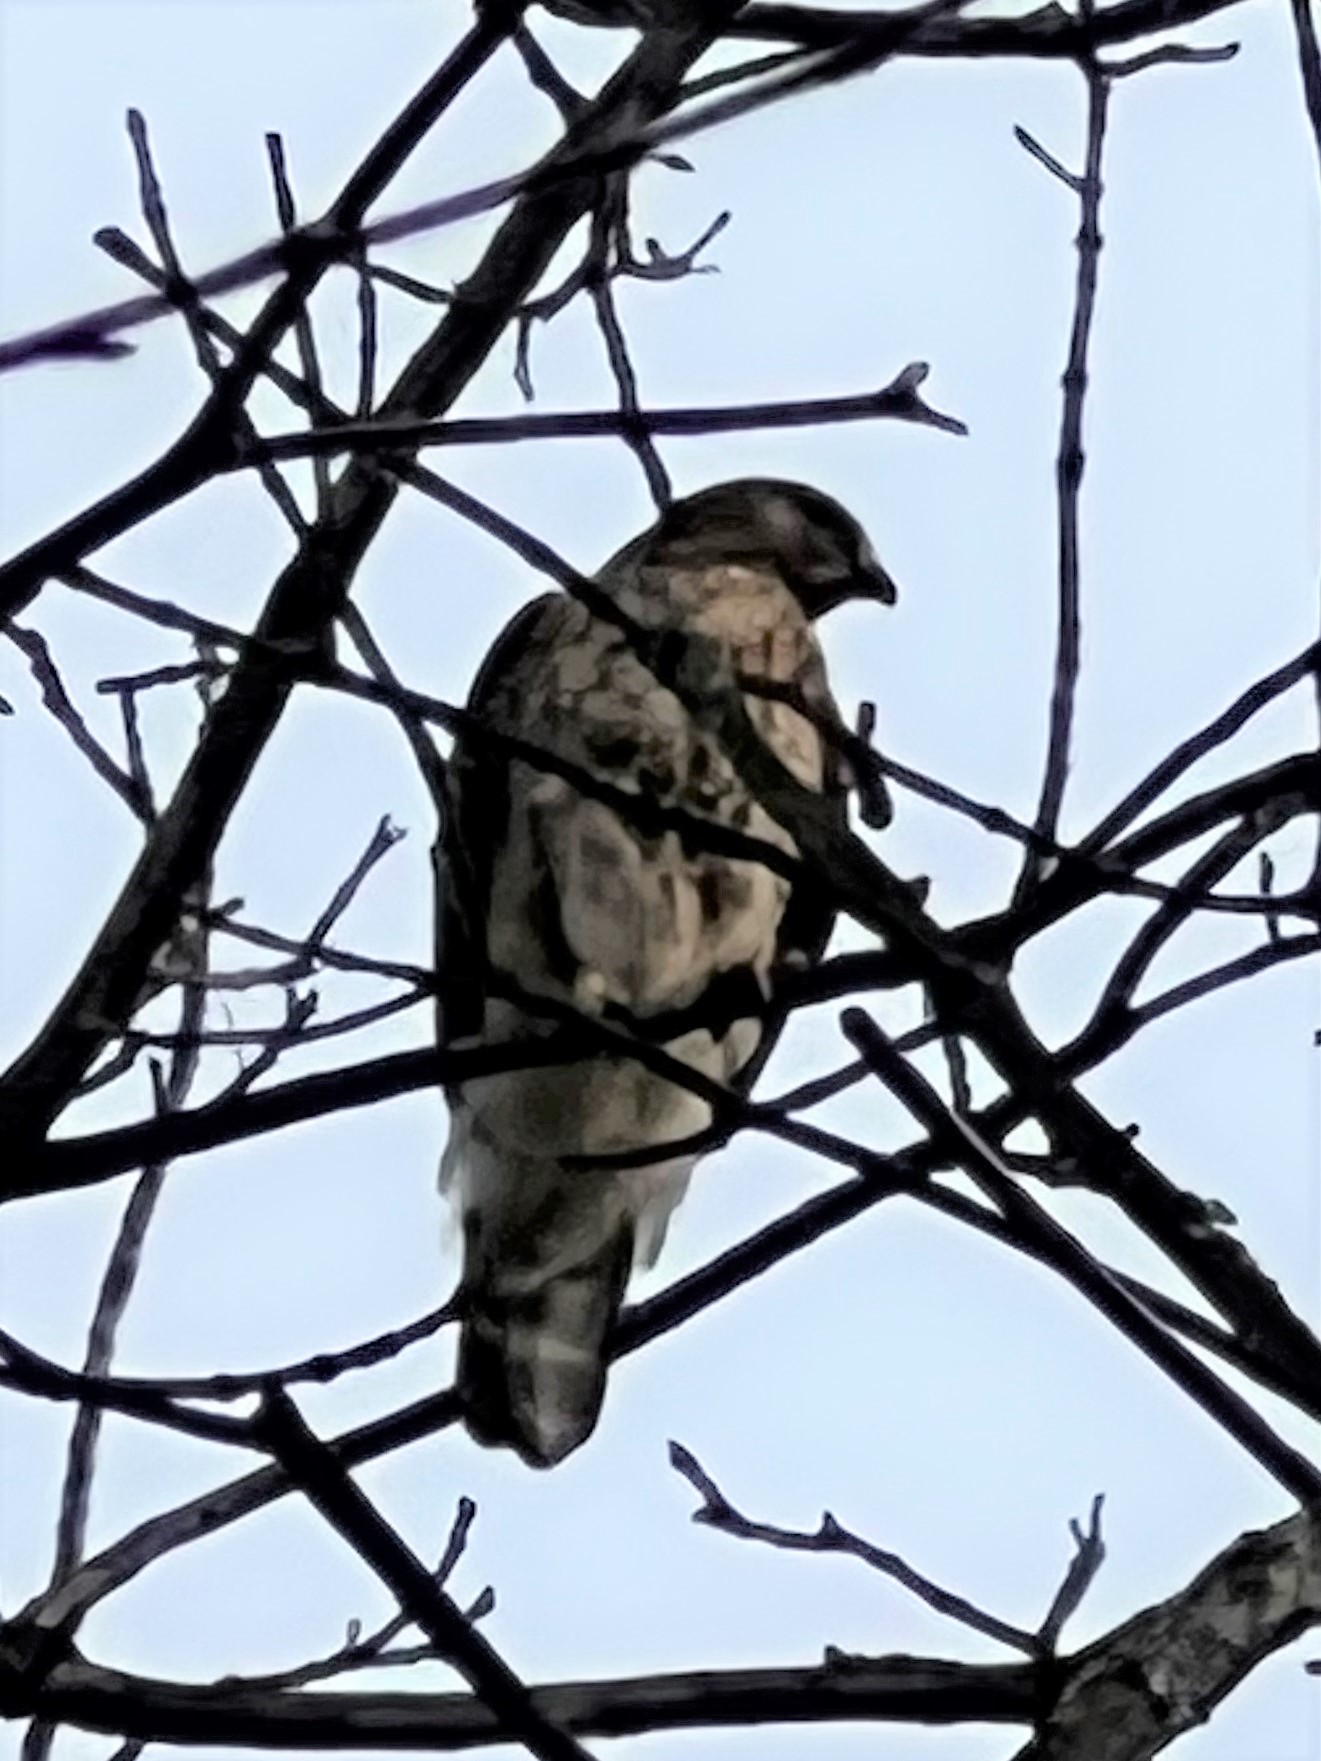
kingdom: Animalia
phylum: Chordata
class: Aves
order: Accipitriformes
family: Accipitridae
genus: Buteo
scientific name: Buteo lineatus
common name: Red-shouldered hawk
